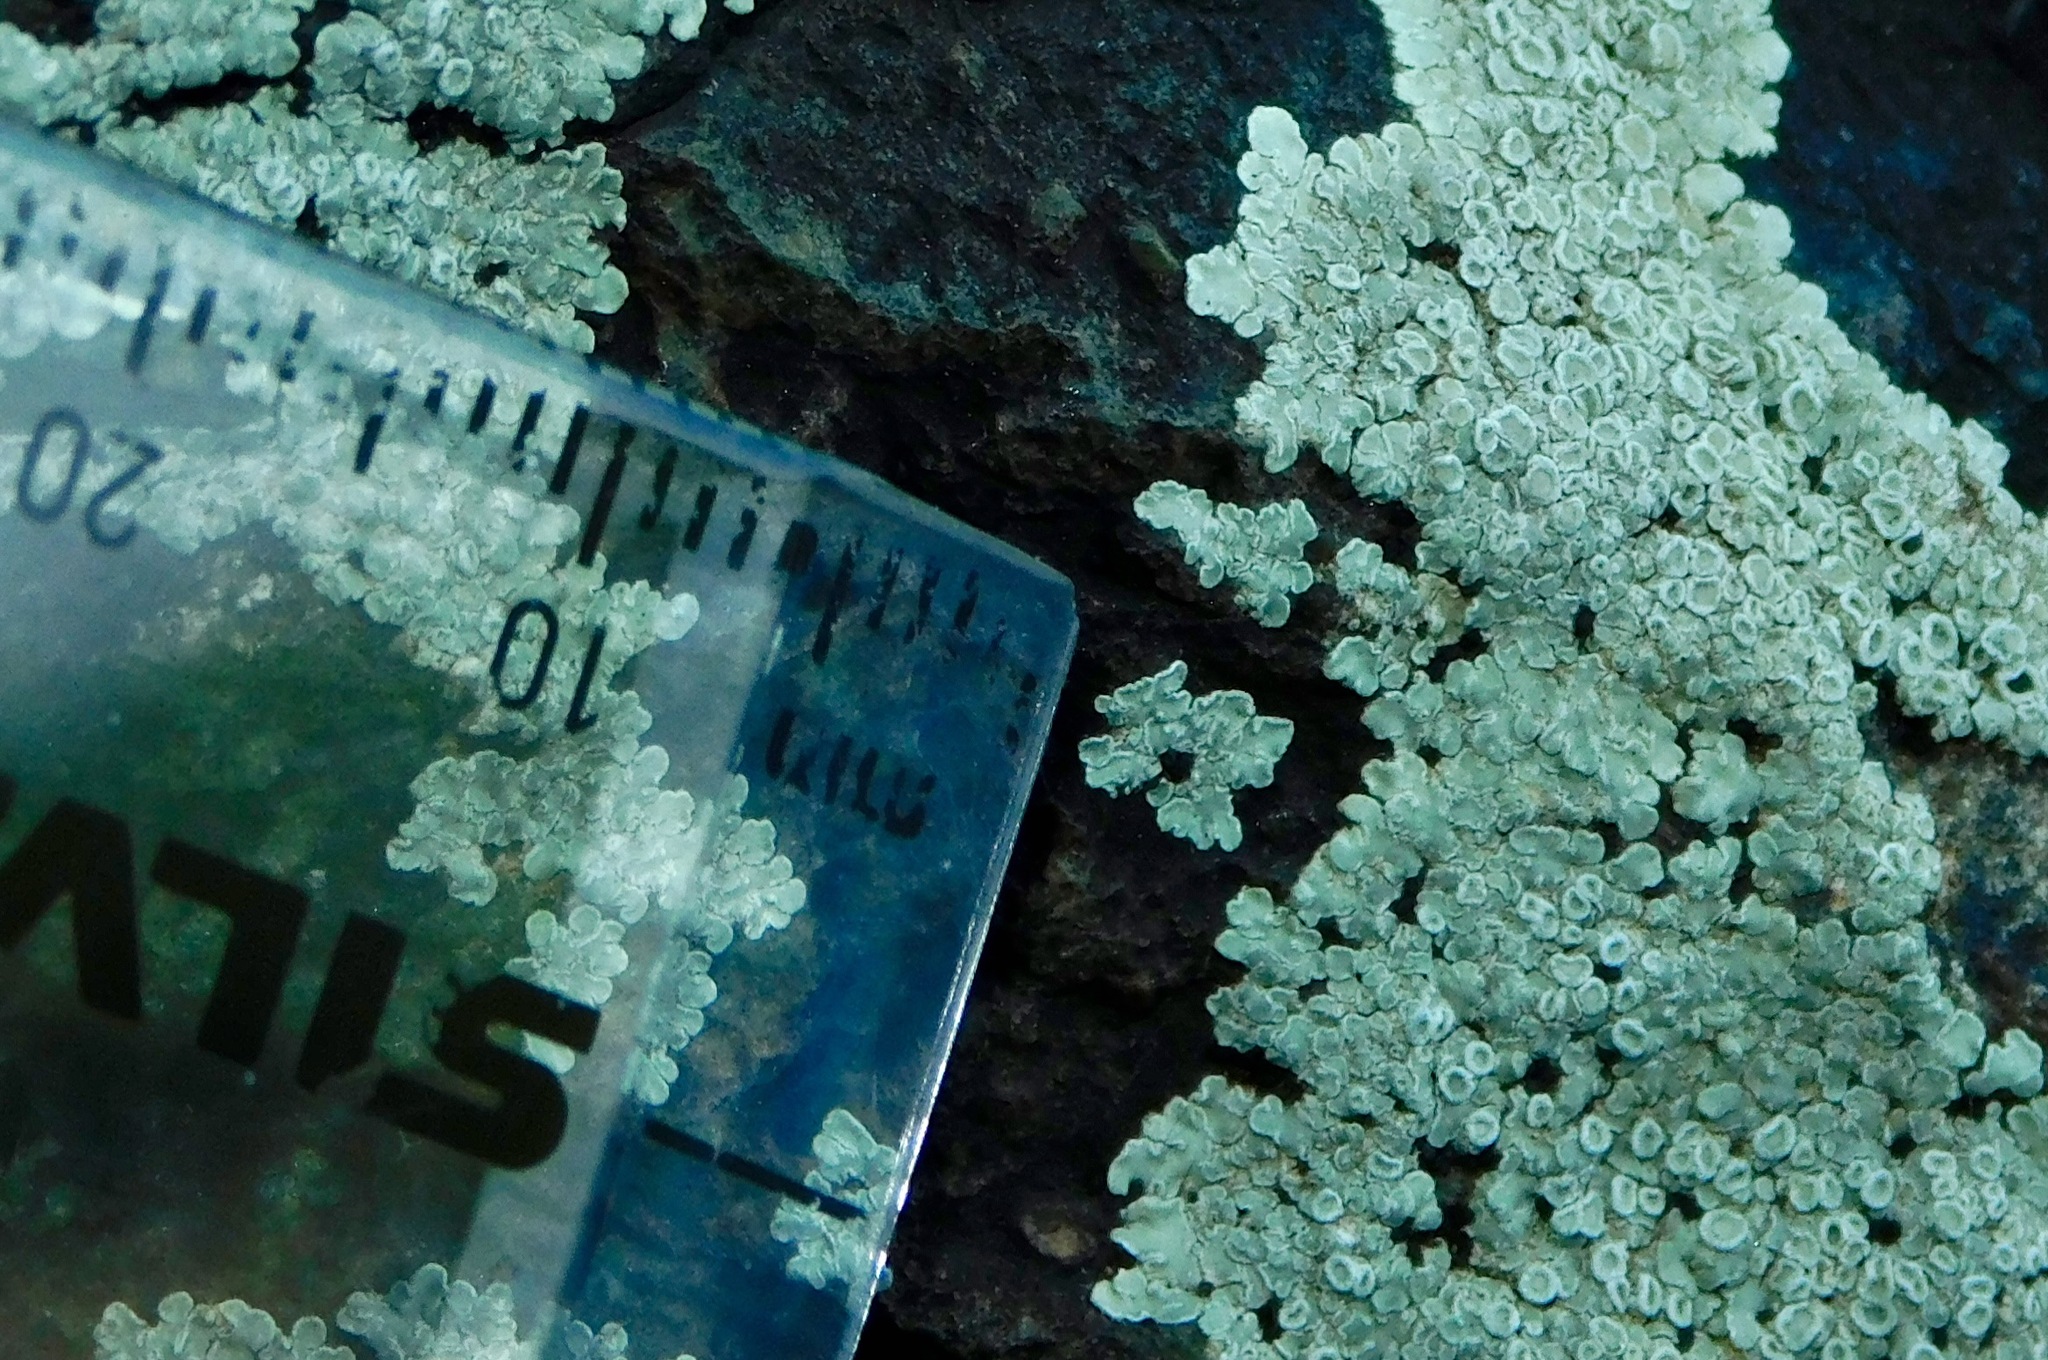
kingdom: Fungi
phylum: Ascomycota
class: Lecanoromycetes
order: Lecanorales
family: Lecanoraceae
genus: Protoparmeliopsis
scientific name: Protoparmeliopsis muralis
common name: Stonewall rim lichen
